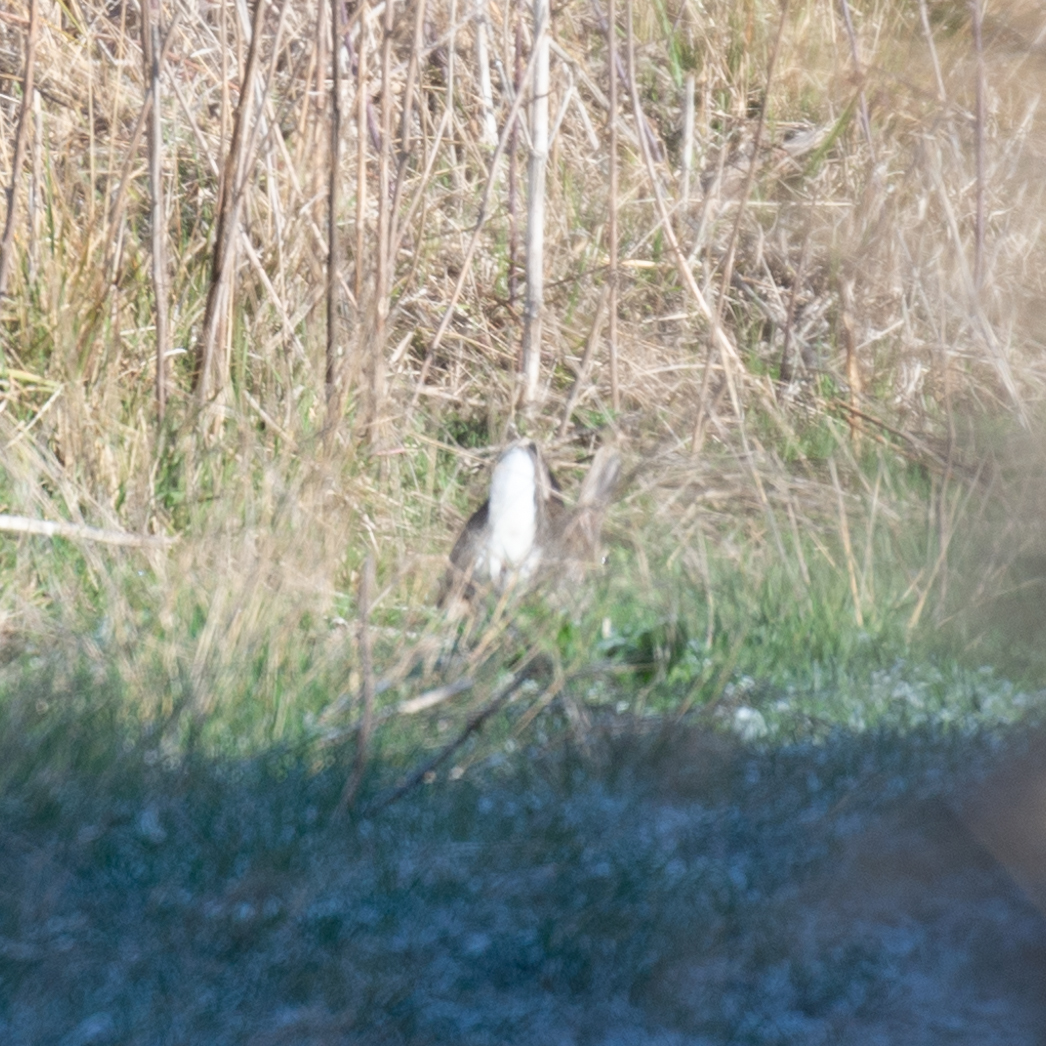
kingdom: Animalia
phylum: Chordata
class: Mammalia
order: Lagomorpha
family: Leporidae
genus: Oryctolagus
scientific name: Oryctolagus cuniculus
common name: European rabbit
